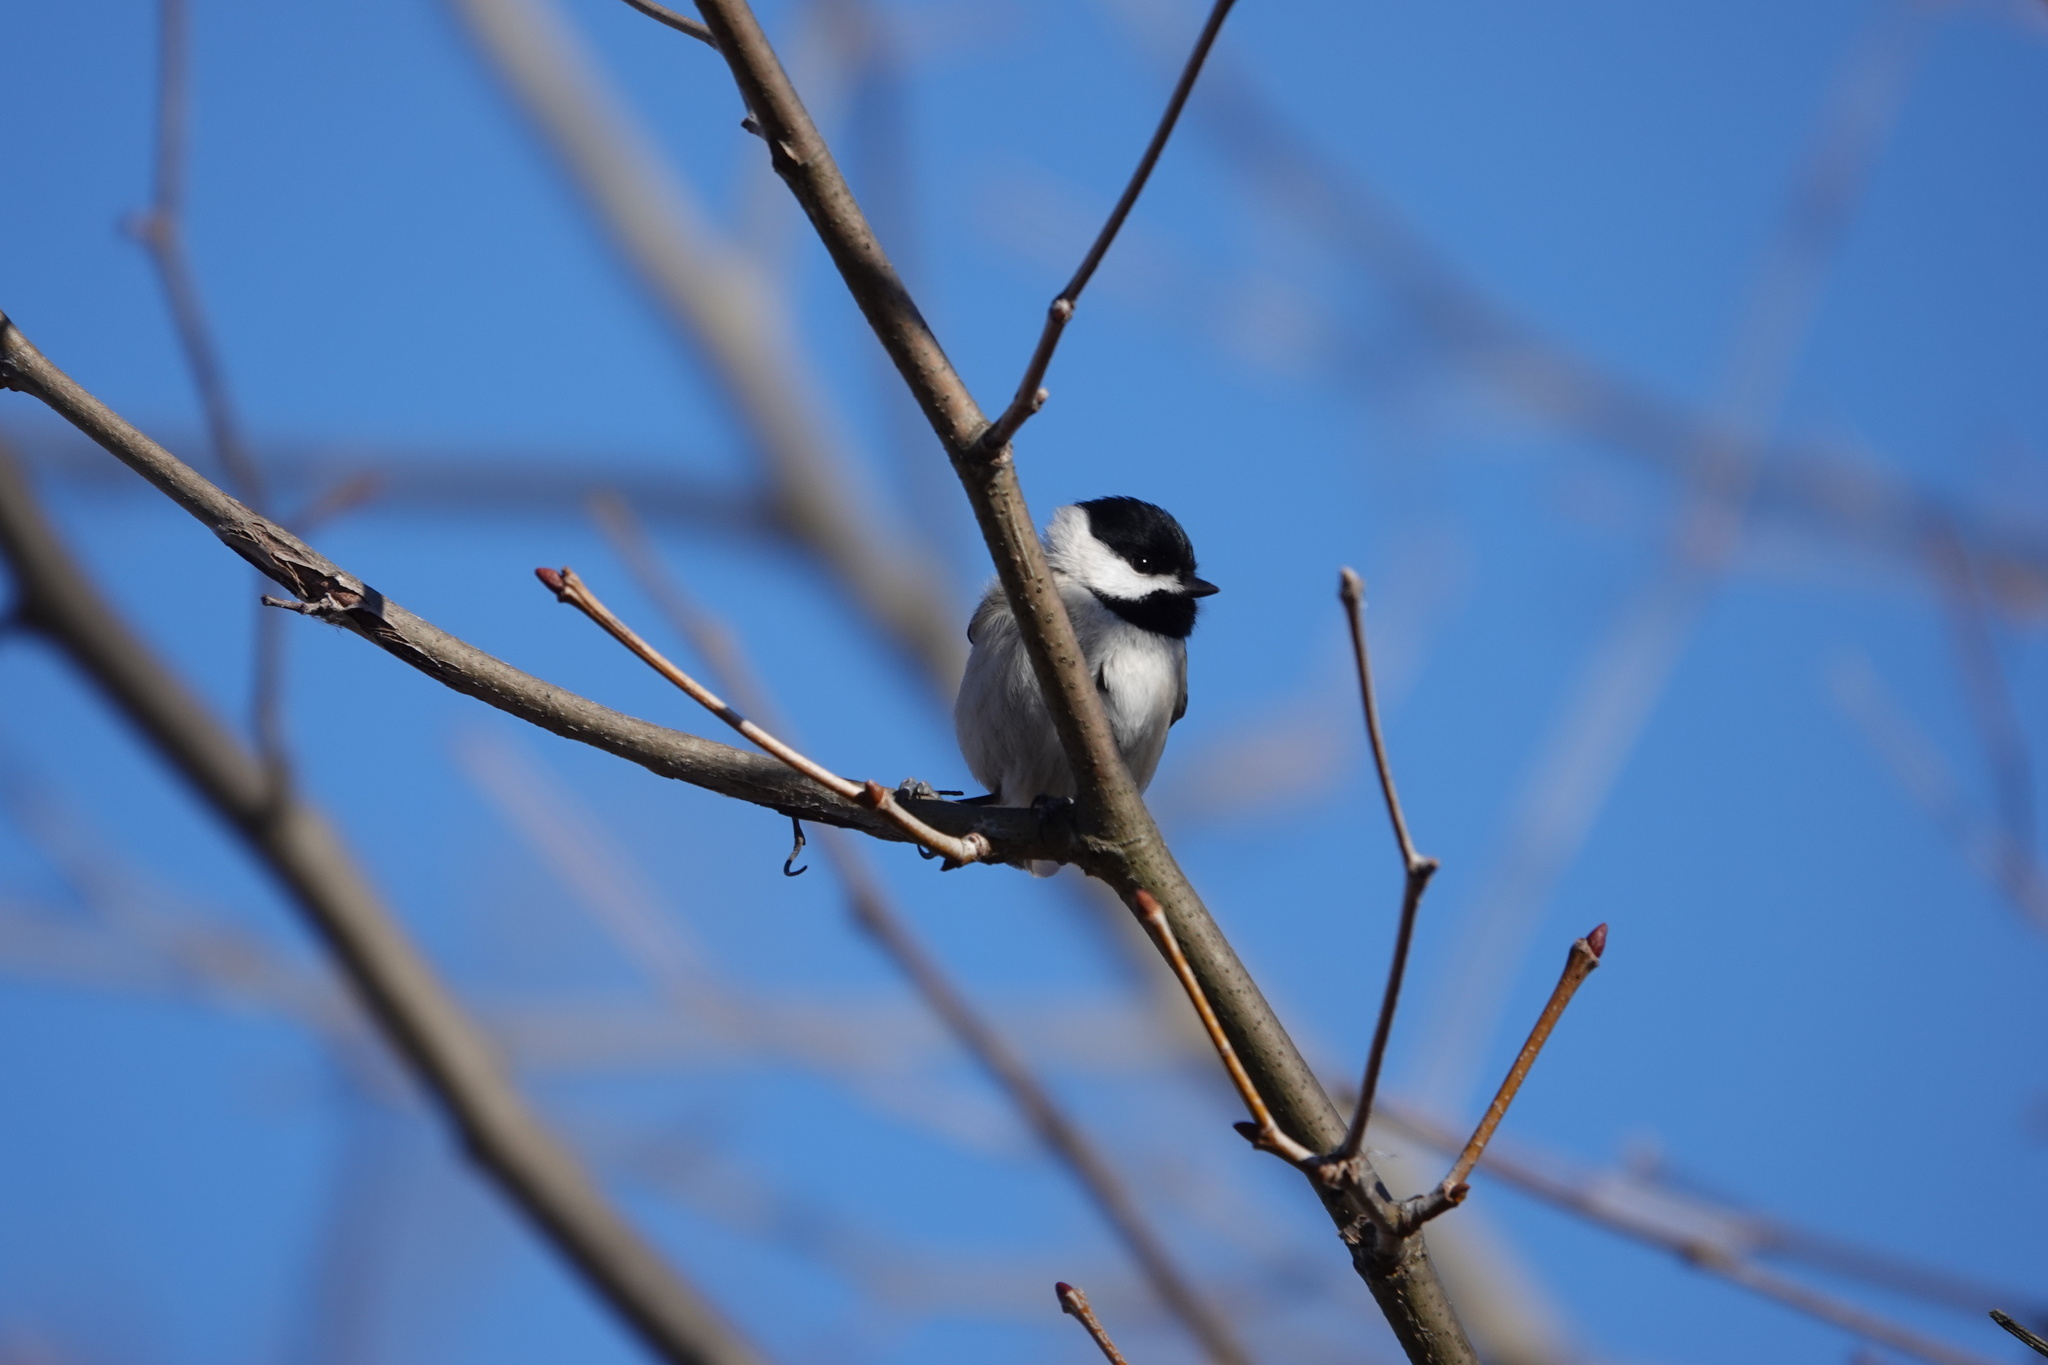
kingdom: Animalia
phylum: Chordata
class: Aves
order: Passeriformes
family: Paridae
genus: Poecile
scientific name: Poecile carolinensis
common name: Carolina chickadee
